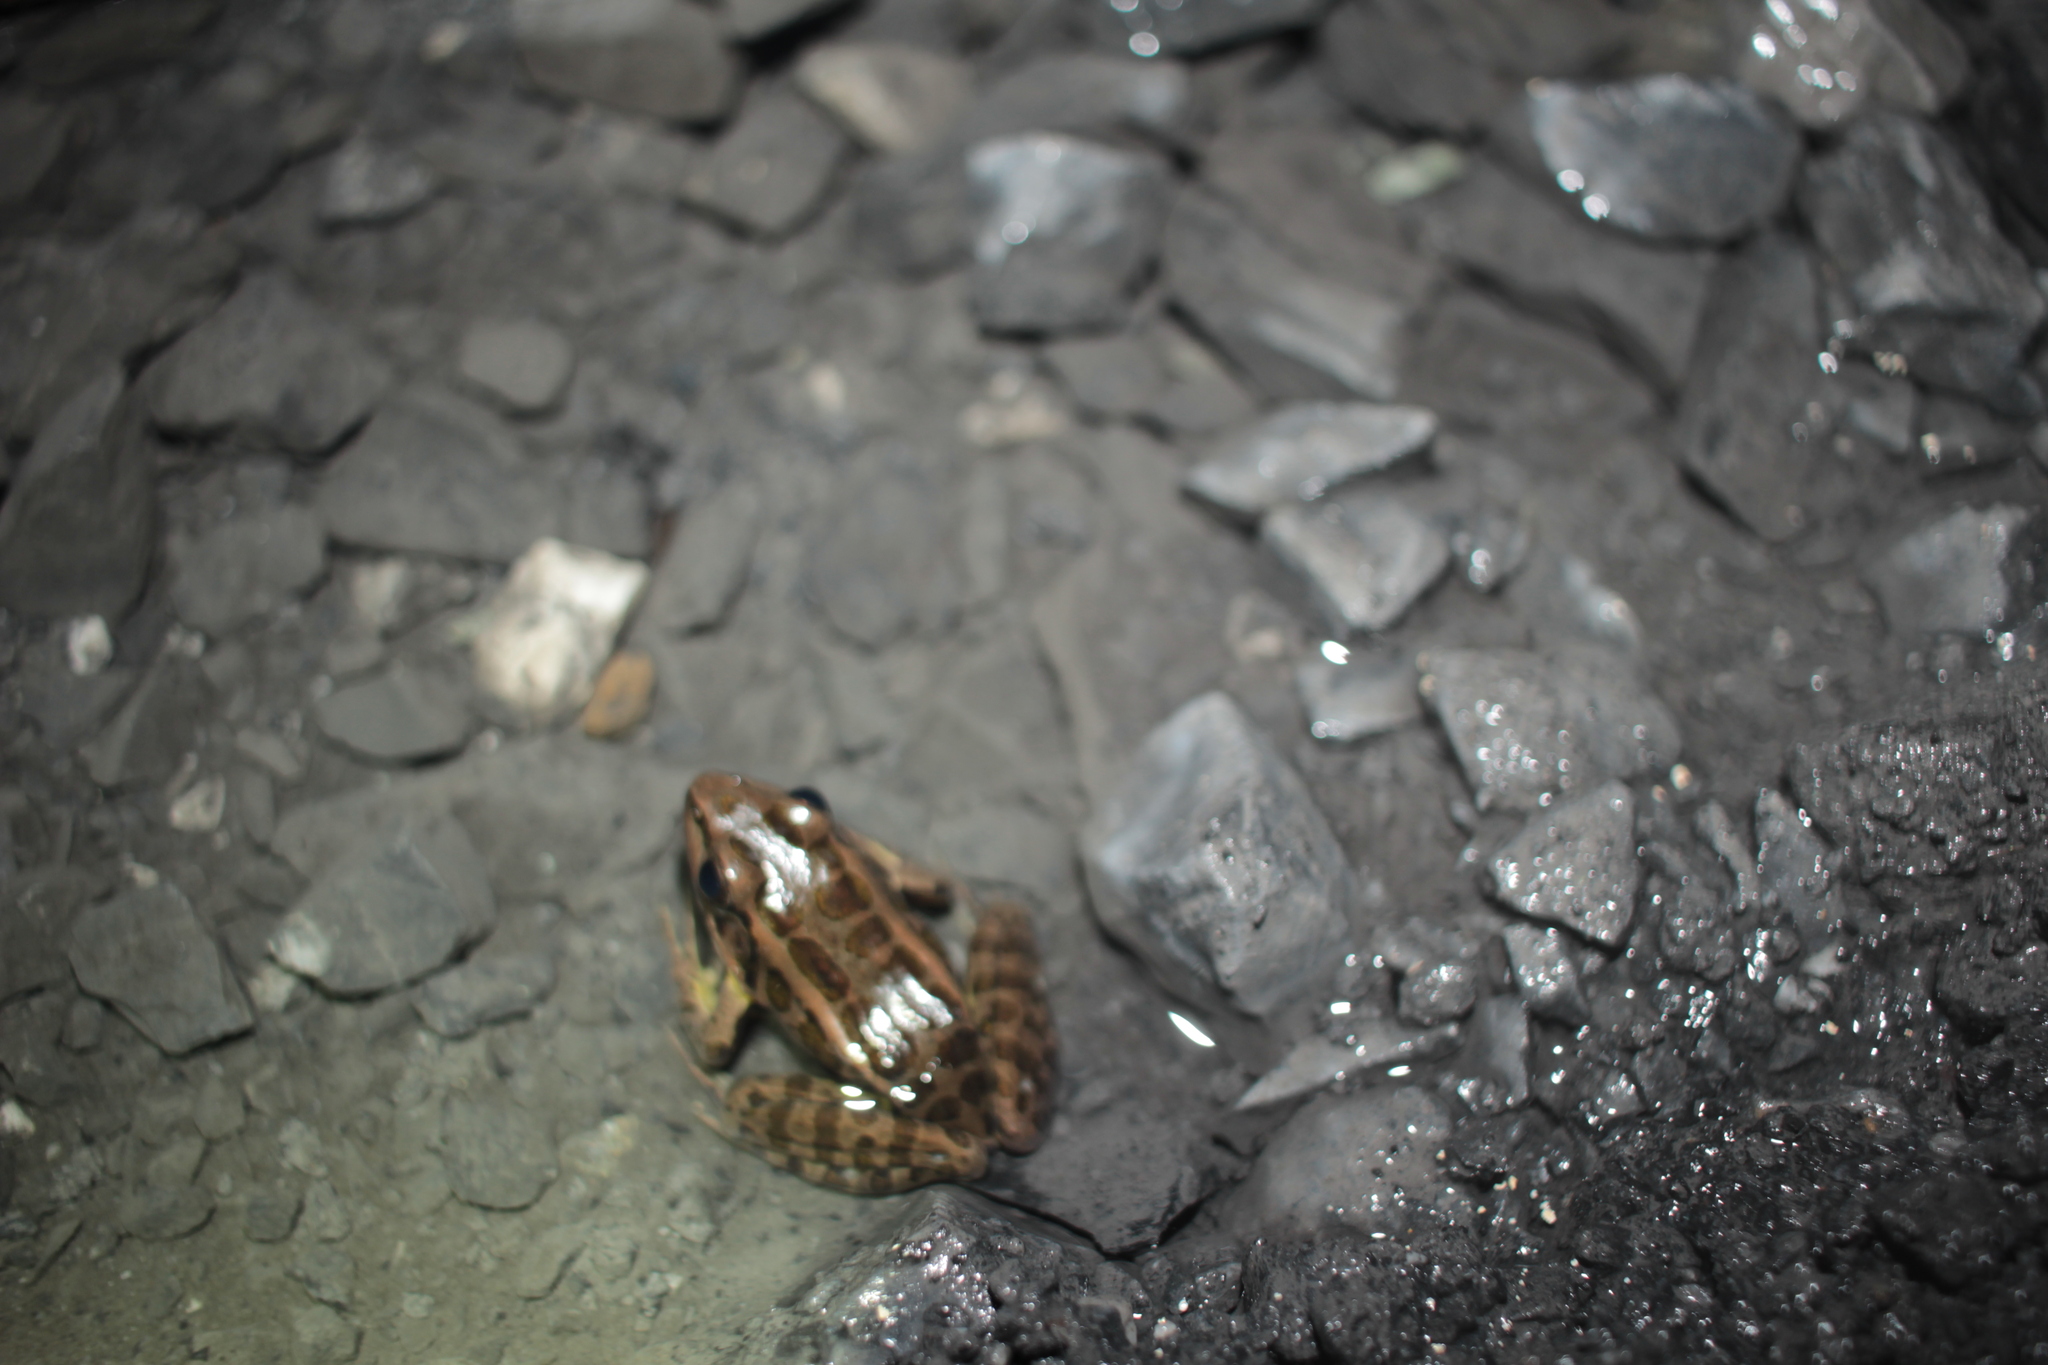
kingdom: Animalia
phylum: Chordata
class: Amphibia
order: Anura
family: Ranidae
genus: Lithobates
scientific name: Lithobates palustris
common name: Pickerel frog
